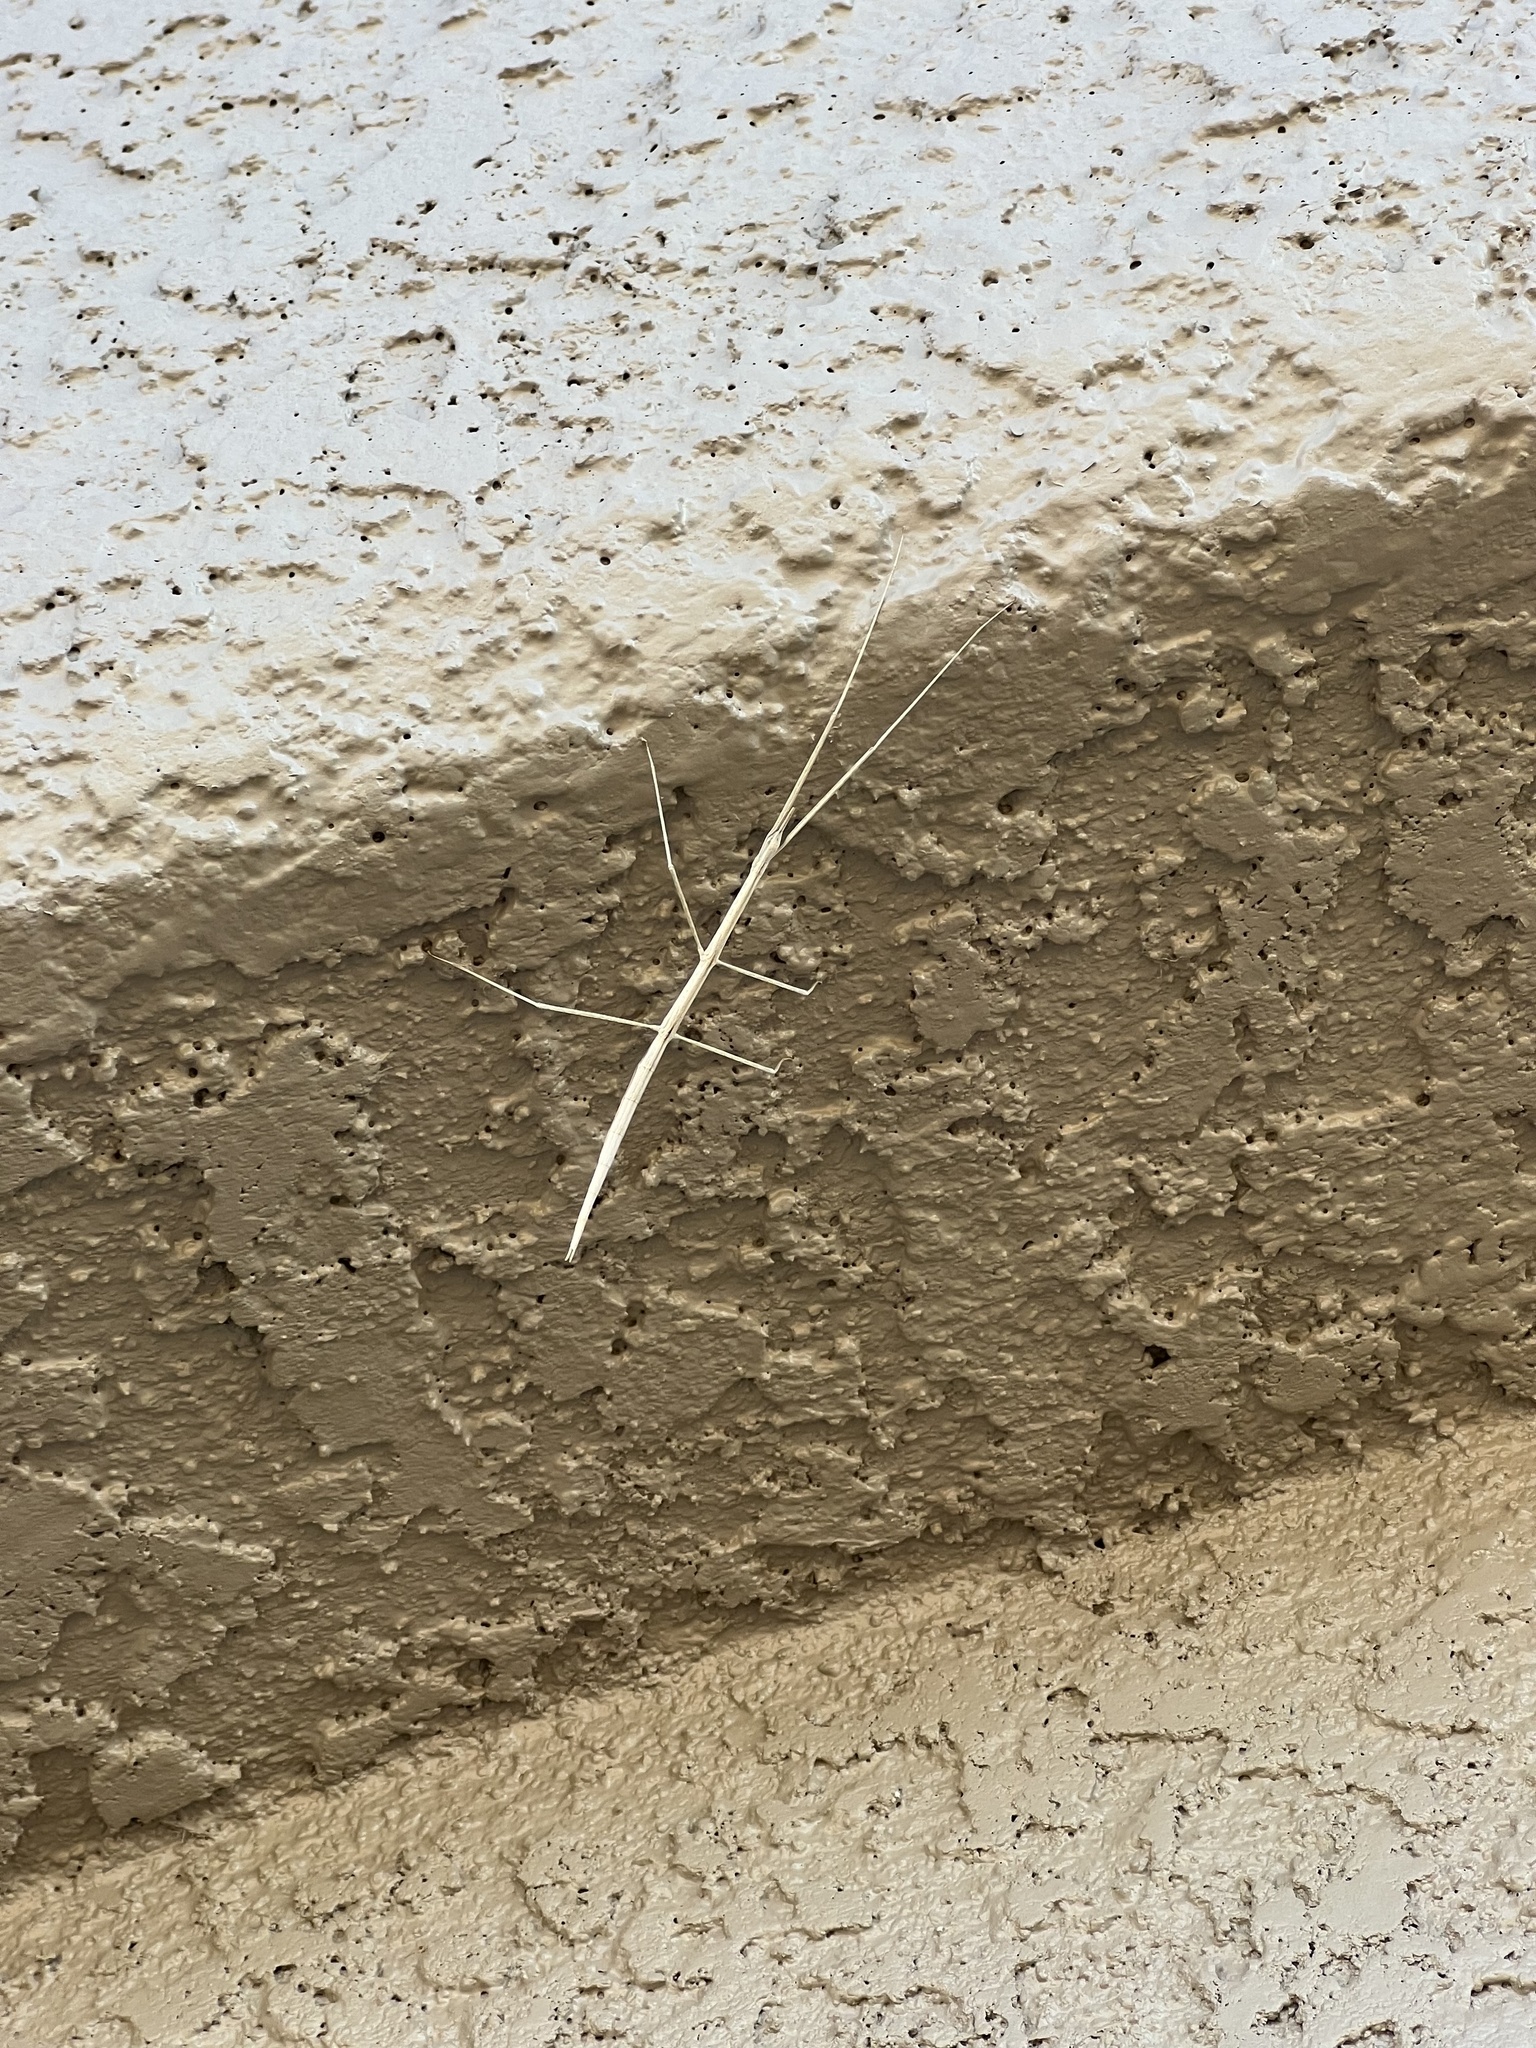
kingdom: Animalia
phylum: Arthropoda
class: Insecta
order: Phasmida
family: Heteronemiidae
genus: Parabacillus
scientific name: Parabacillus hesperus
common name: Western short-horned walkingstick
